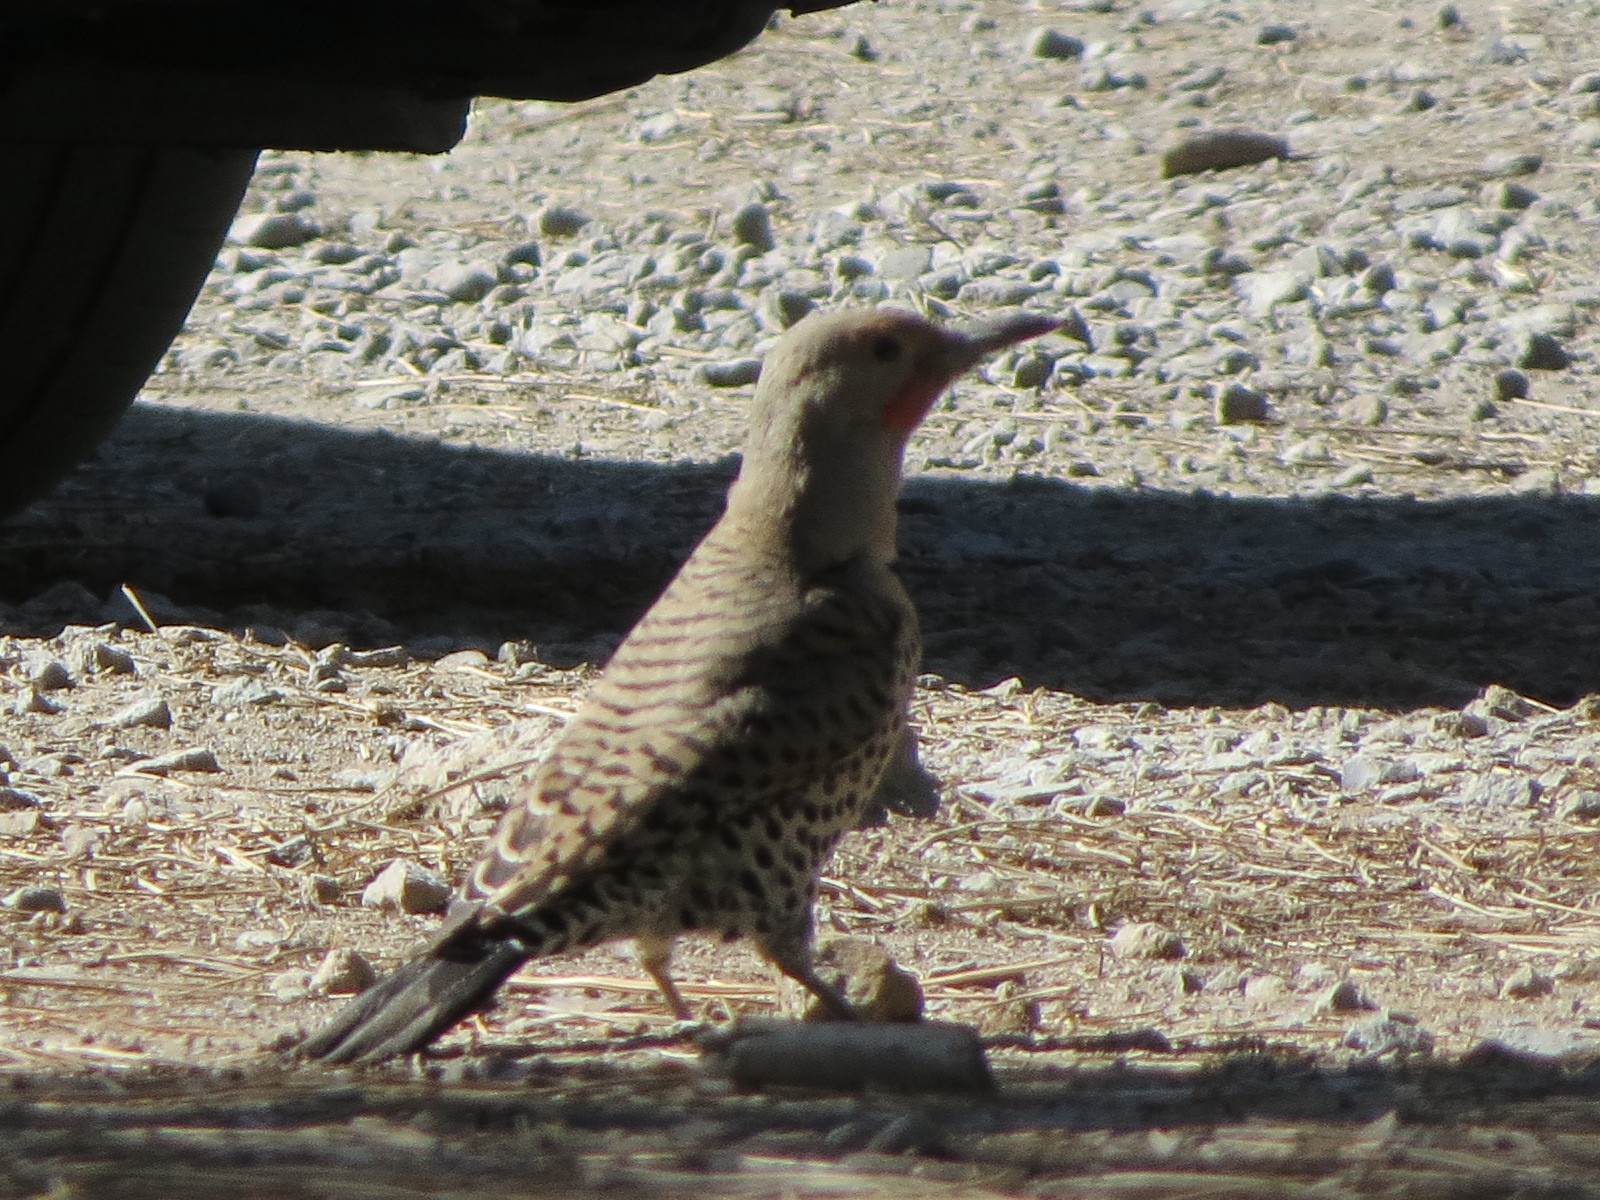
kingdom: Animalia
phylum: Chordata
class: Aves
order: Piciformes
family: Picidae
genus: Colaptes
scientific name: Colaptes auratus
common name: Northern flicker
